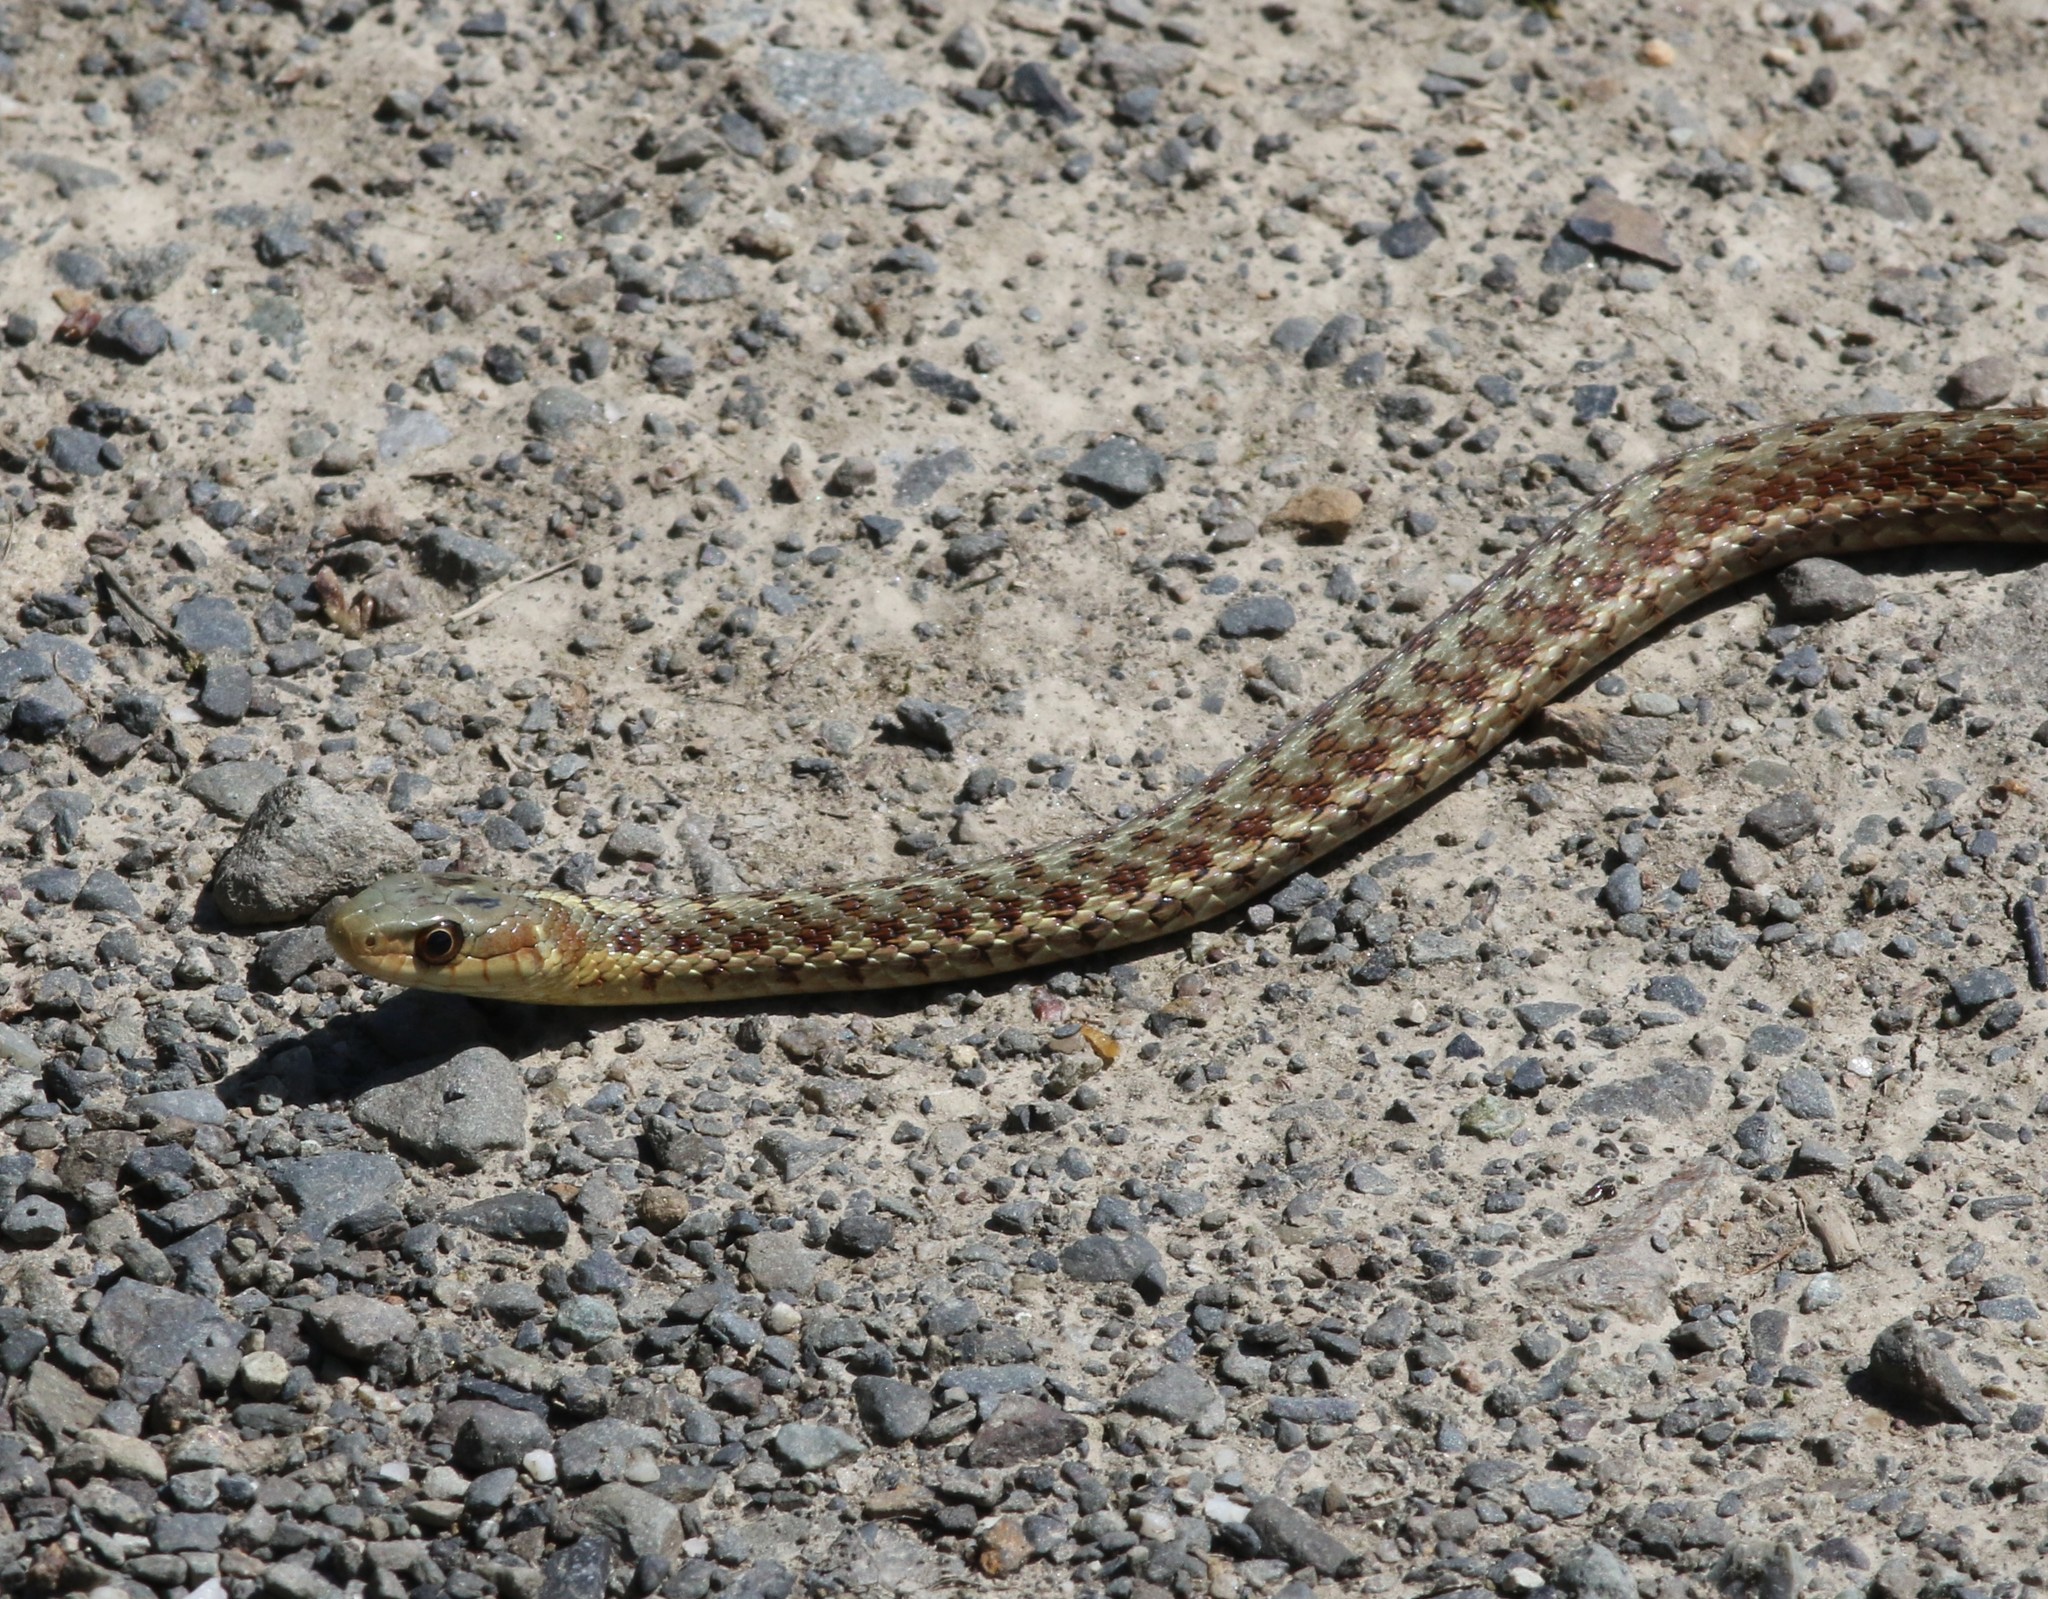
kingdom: Animalia
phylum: Chordata
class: Squamata
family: Colubridae
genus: Thamnophis
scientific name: Thamnophis sirtalis
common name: Common garter snake
